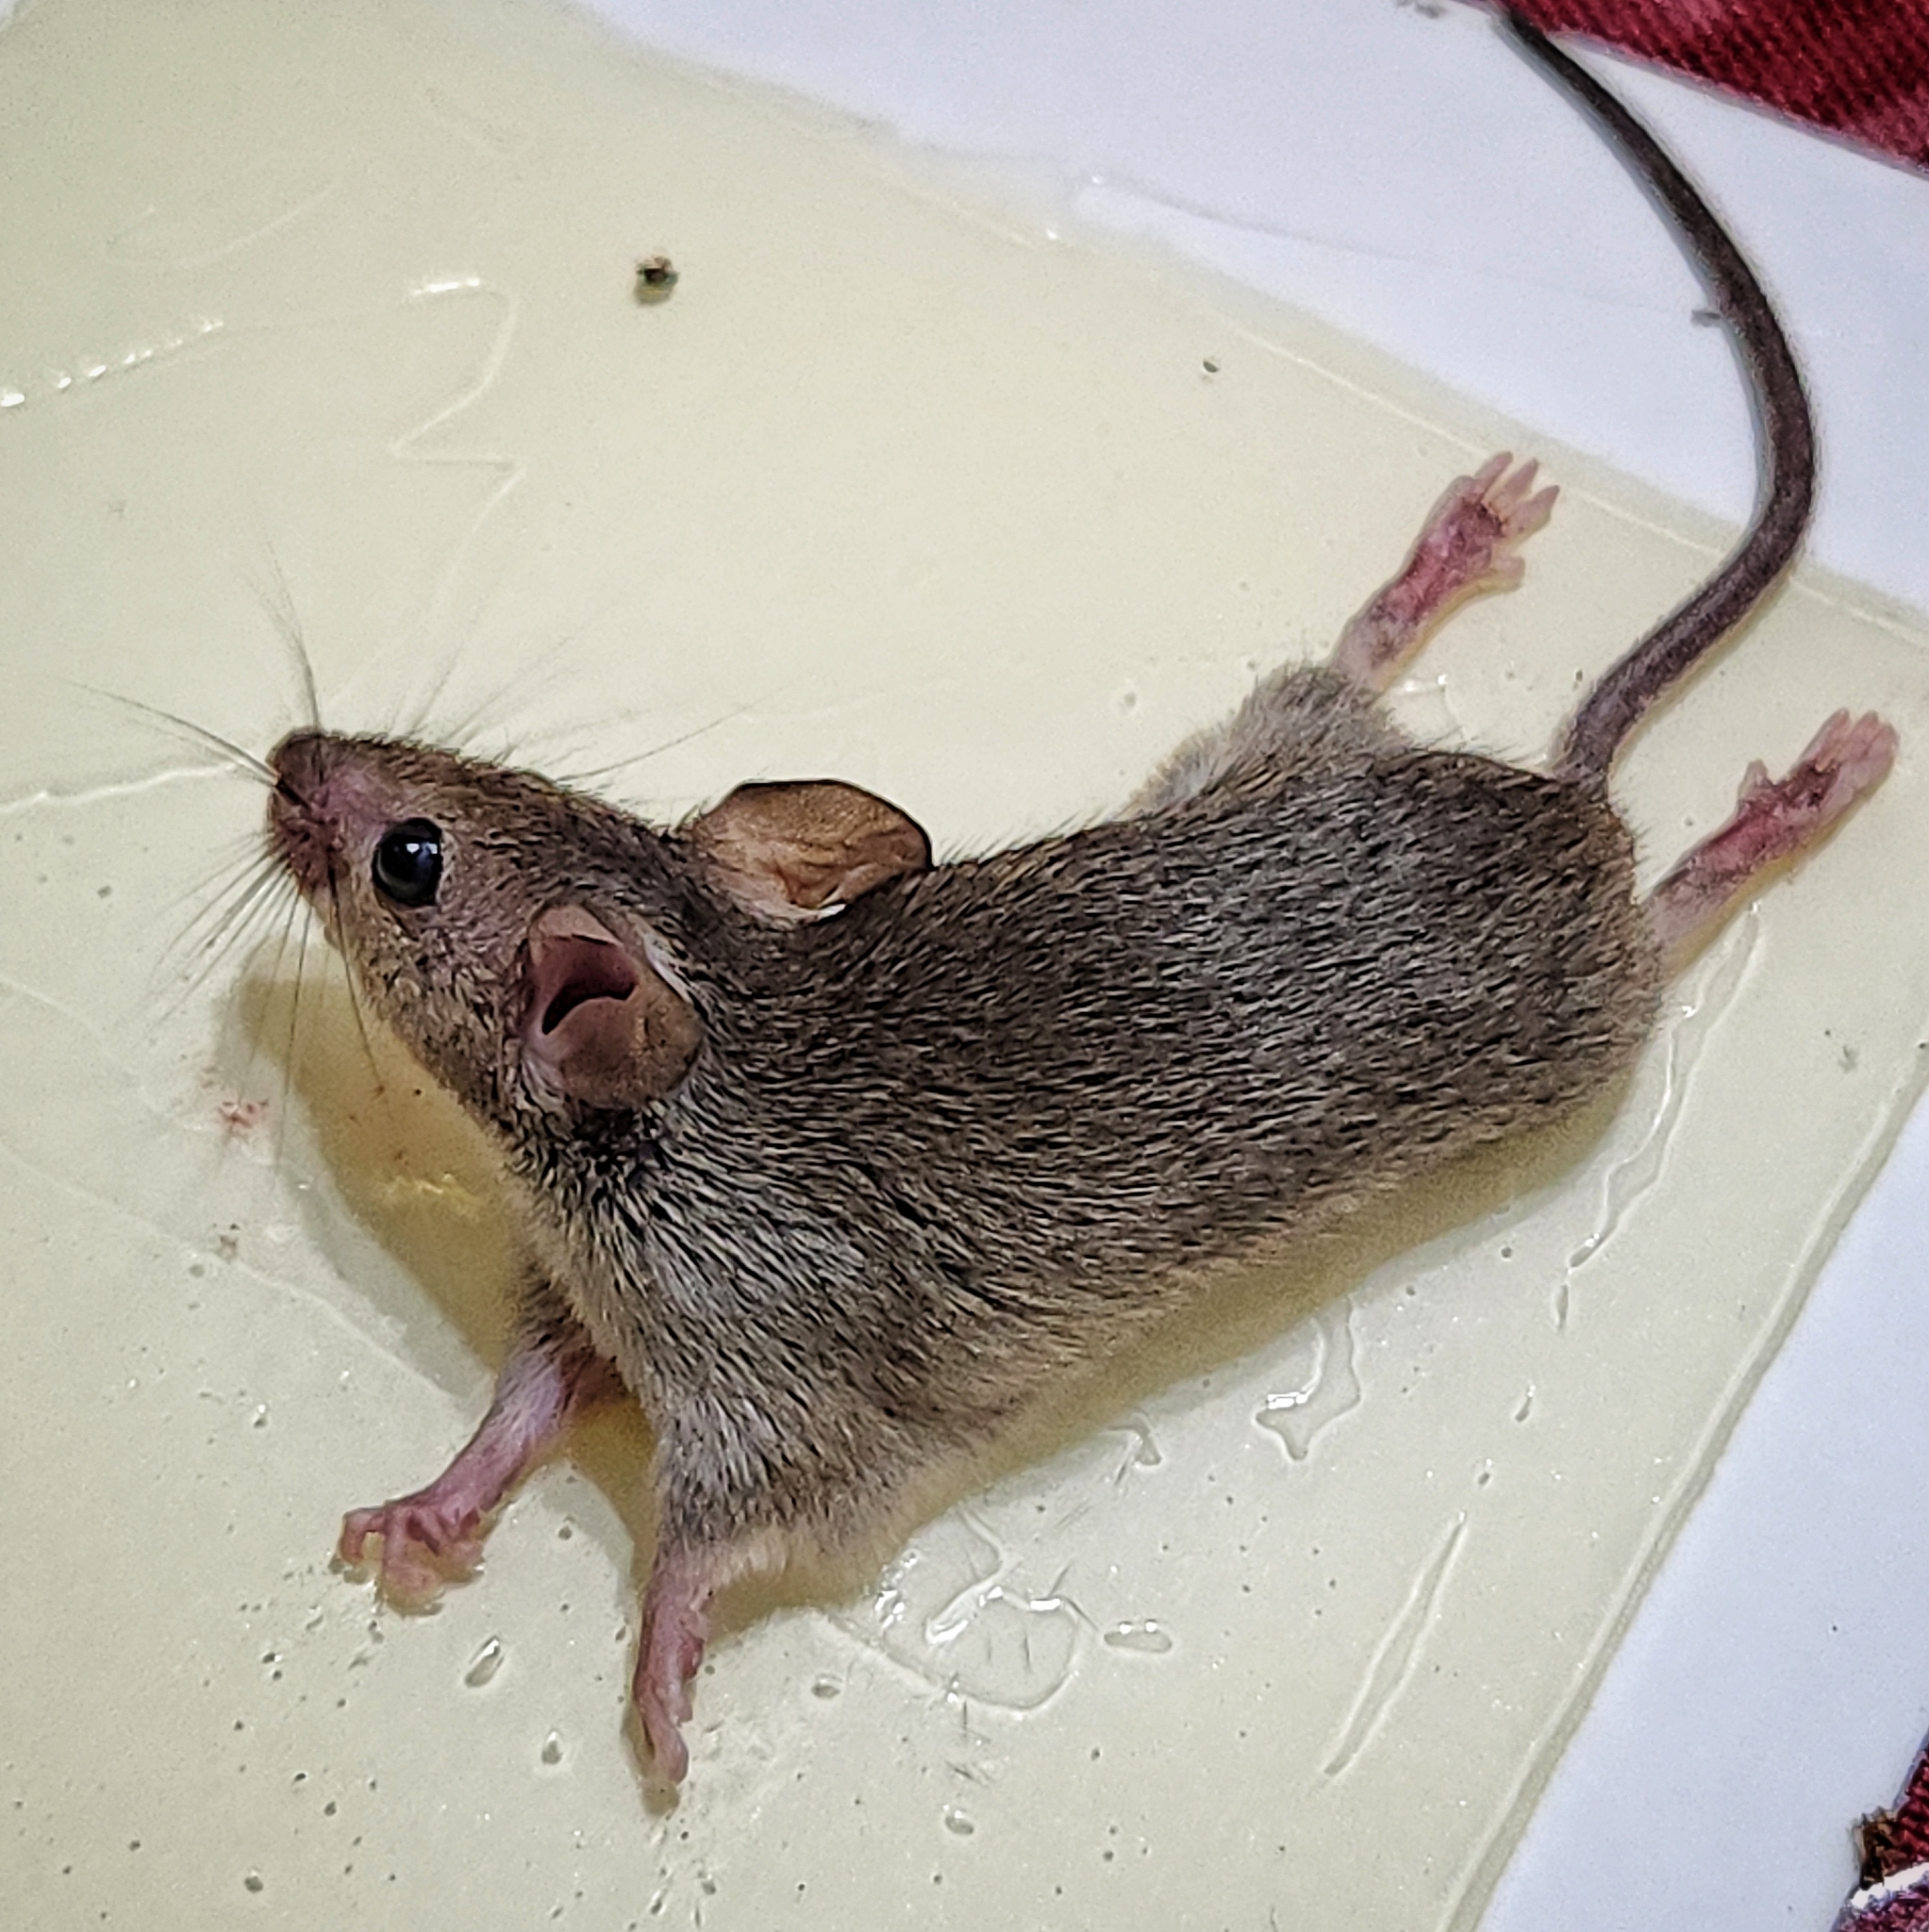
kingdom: Animalia
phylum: Chordata
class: Mammalia
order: Rodentia
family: Muridae
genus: Mus
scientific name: Mus musculus
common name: House mouse
